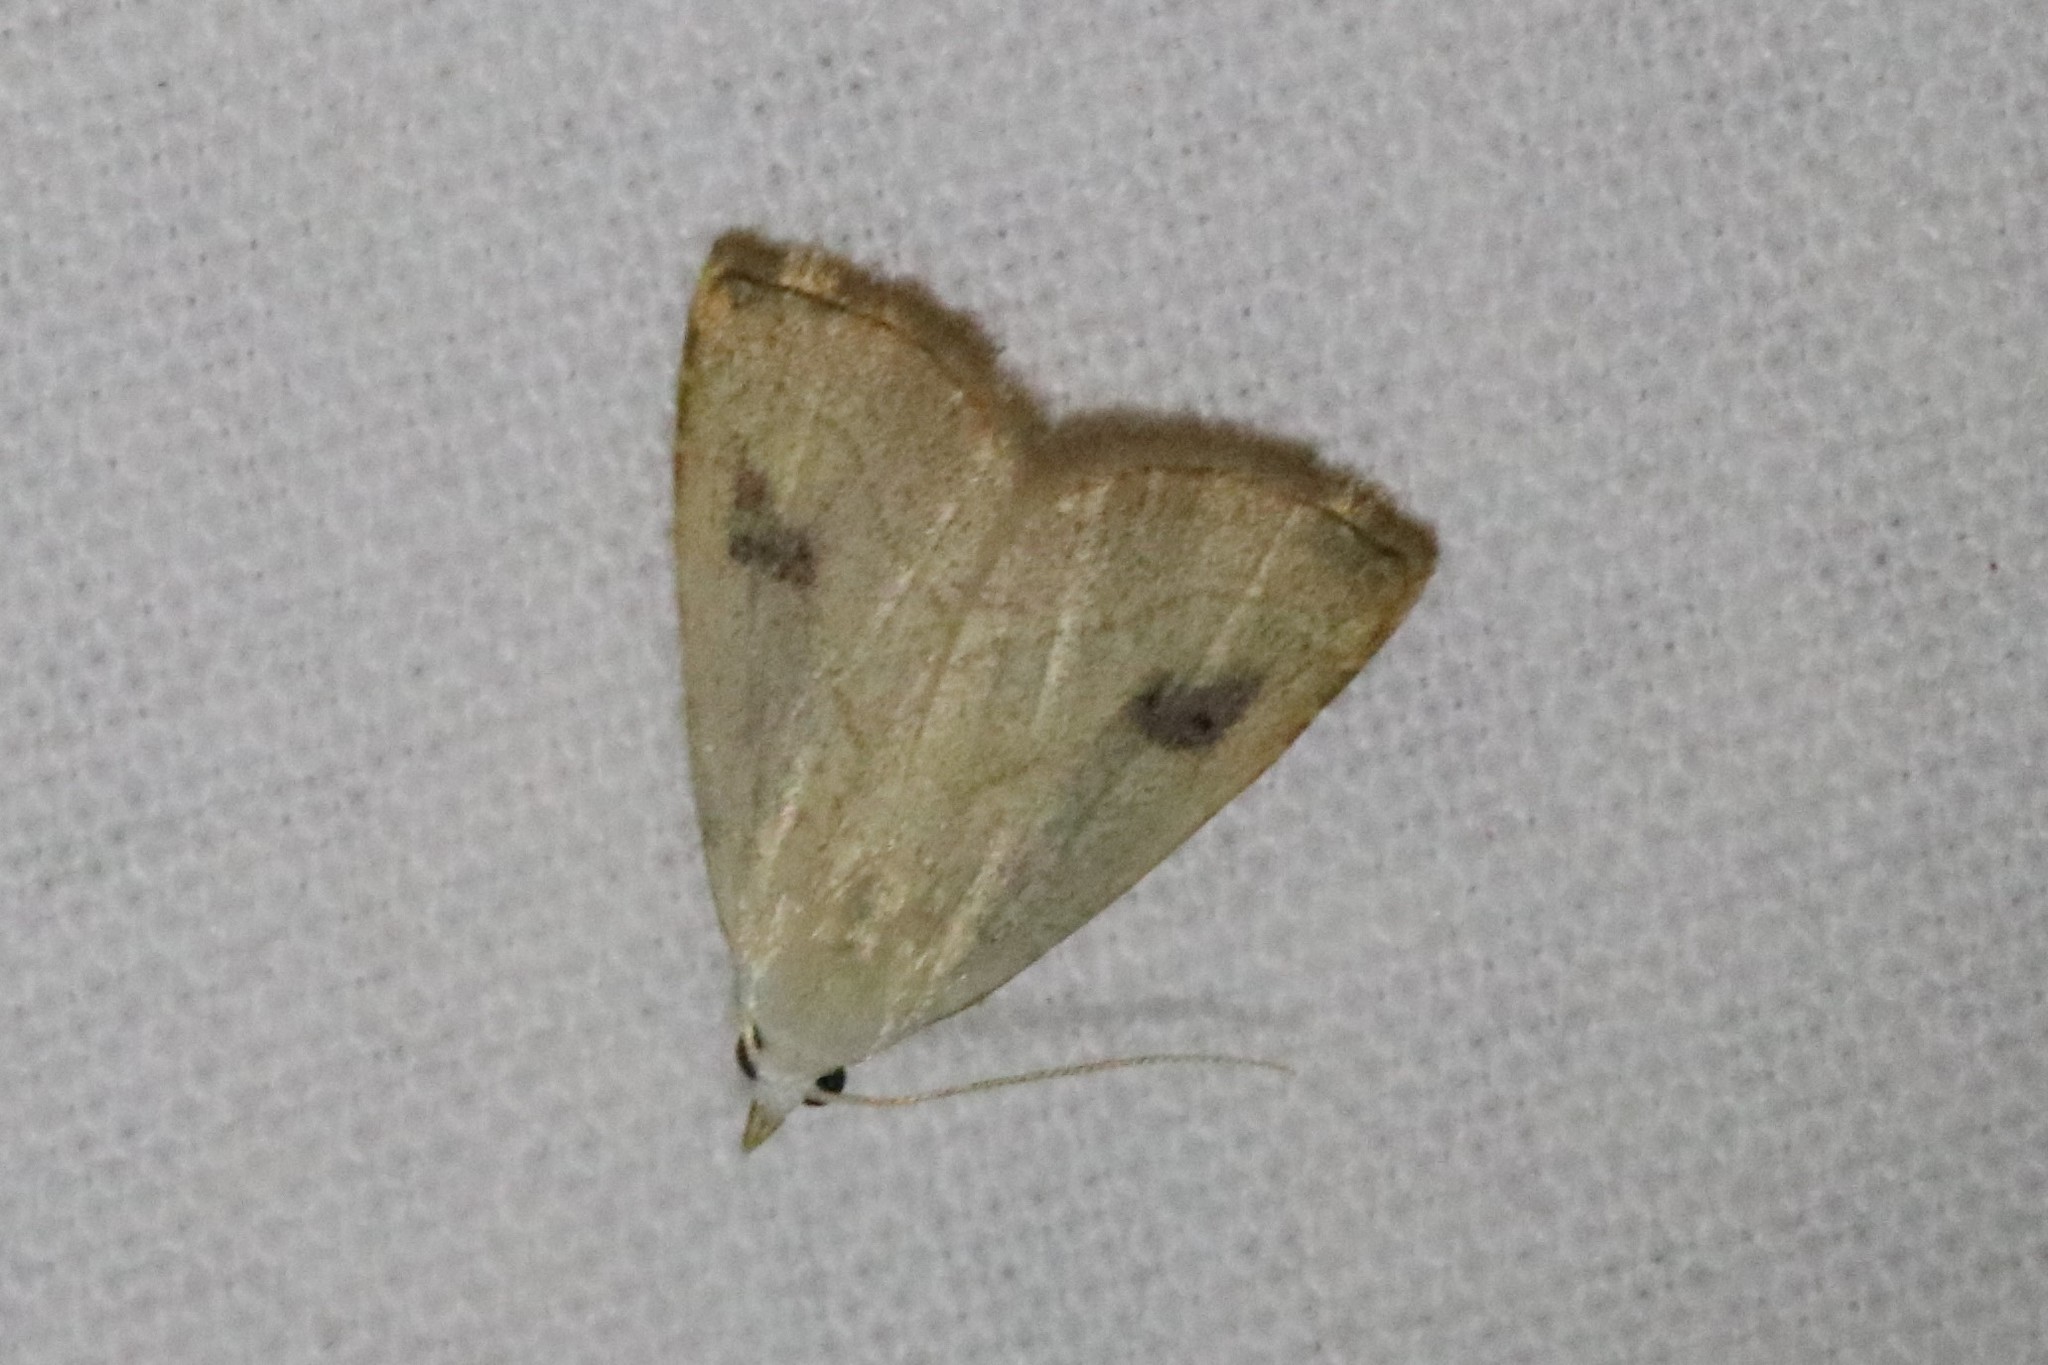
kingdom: Animalia
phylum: Arthropoda
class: Insecta
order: Lepidoptera
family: Erebidae
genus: Rivula
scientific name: Rivula propinqualis
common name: Spotted grass moth
